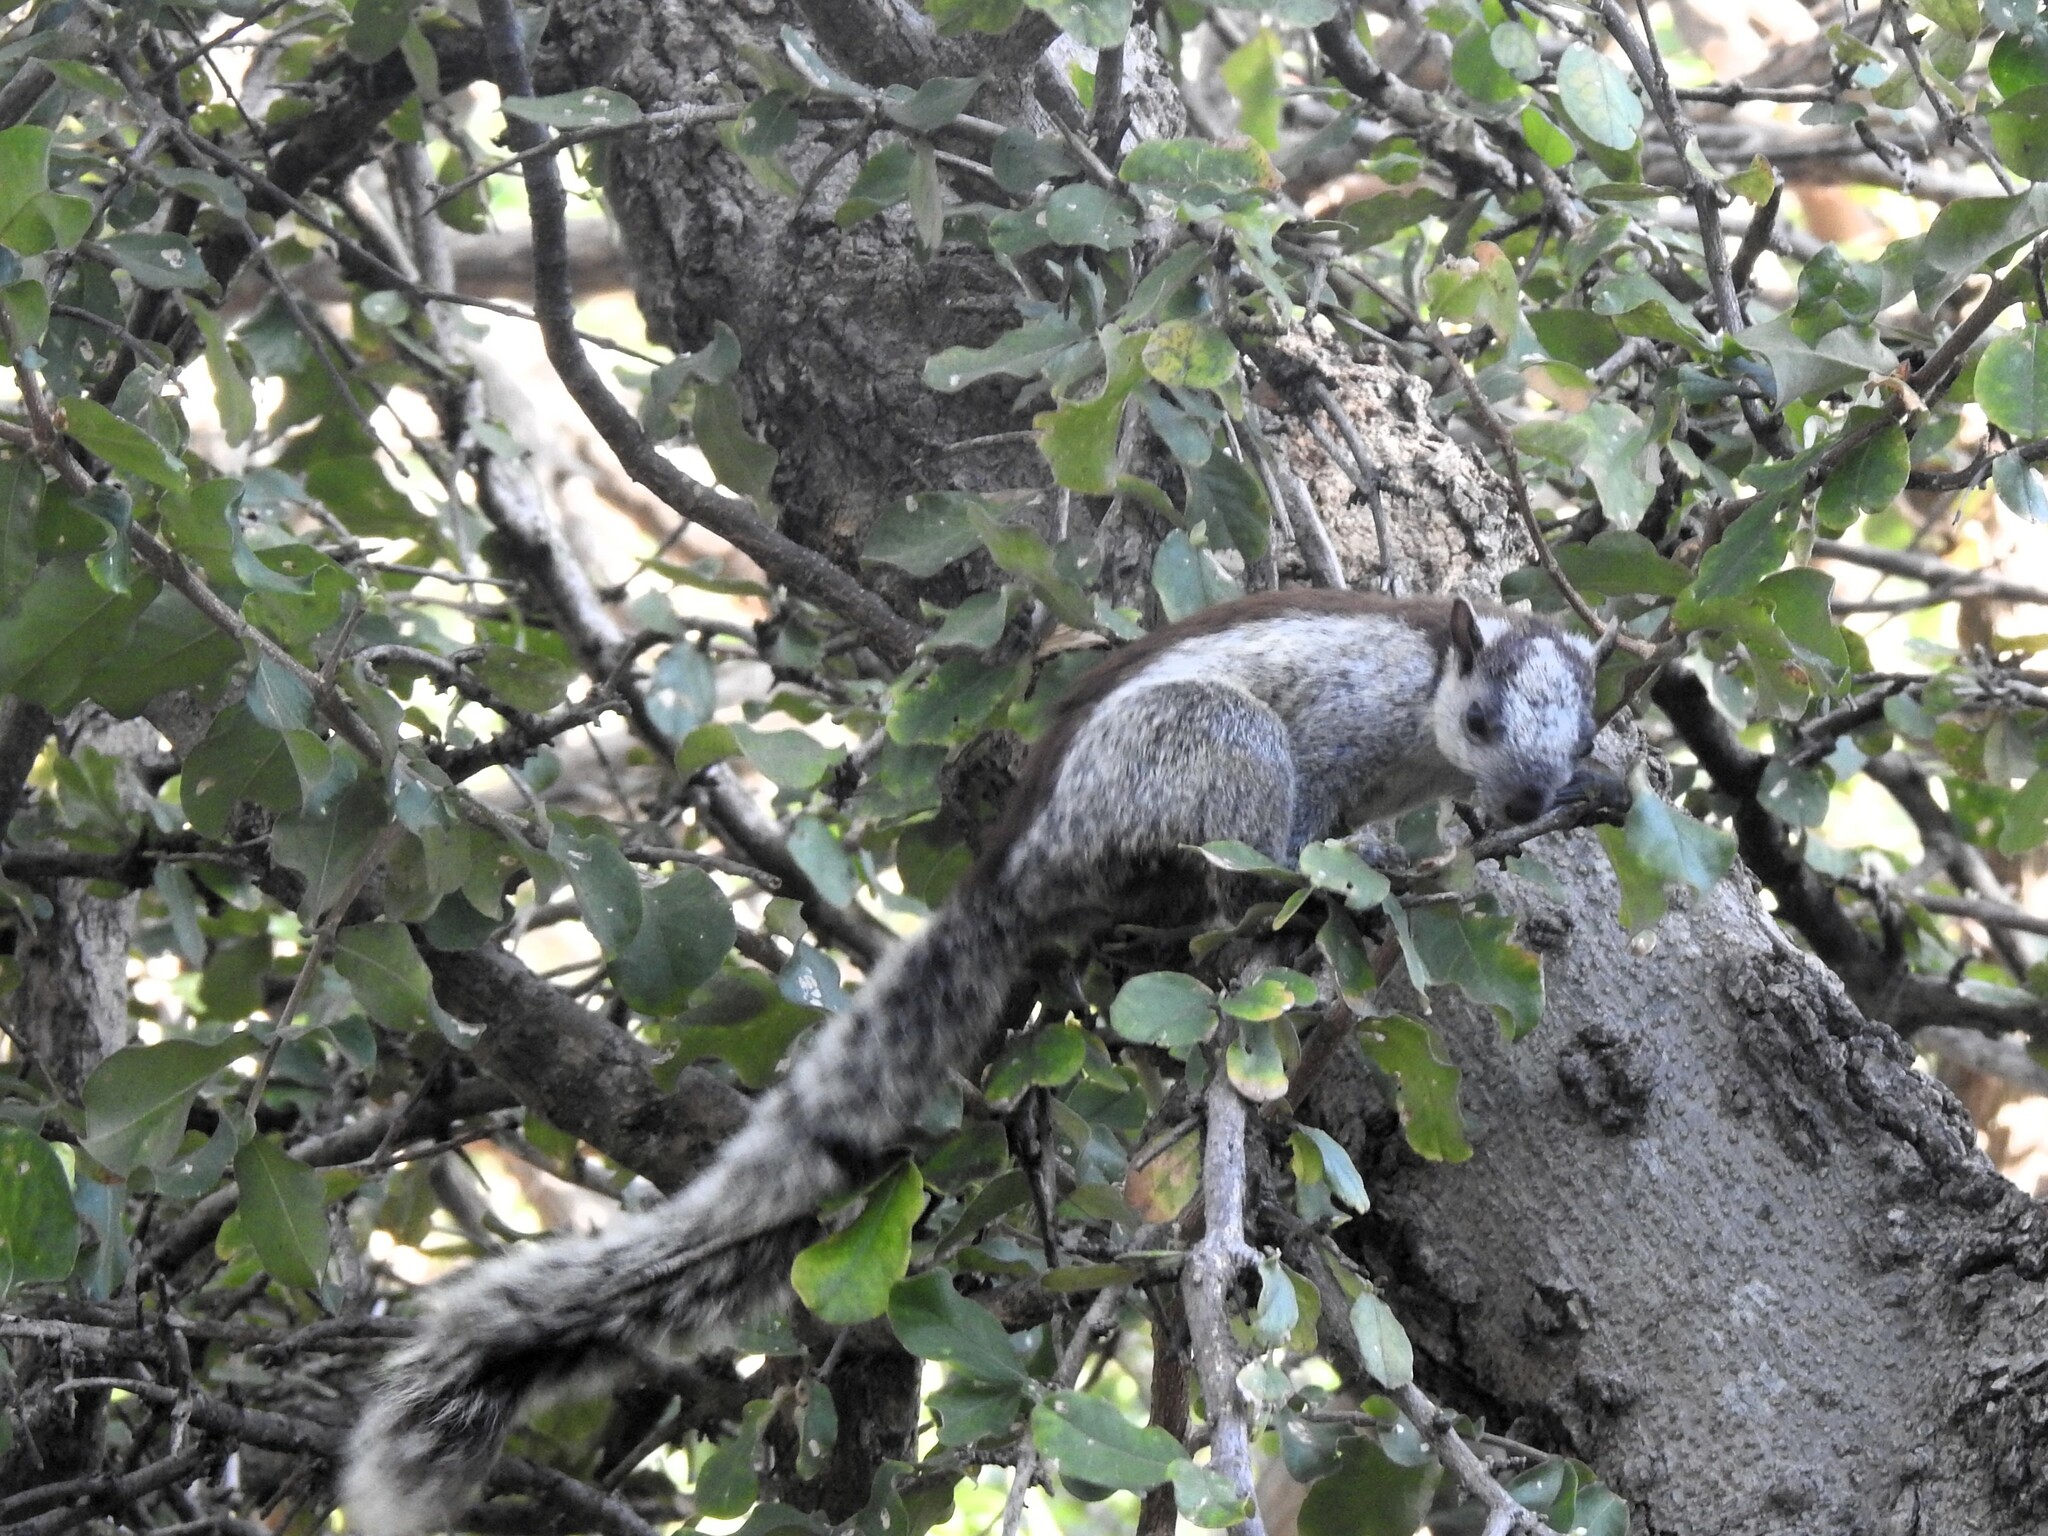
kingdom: Animalia
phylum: Chordata
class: Mammalia
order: Rodentia
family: Sciuridae
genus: Sciurus
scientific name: Sciurus variegatoides
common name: Variegated squirrel
